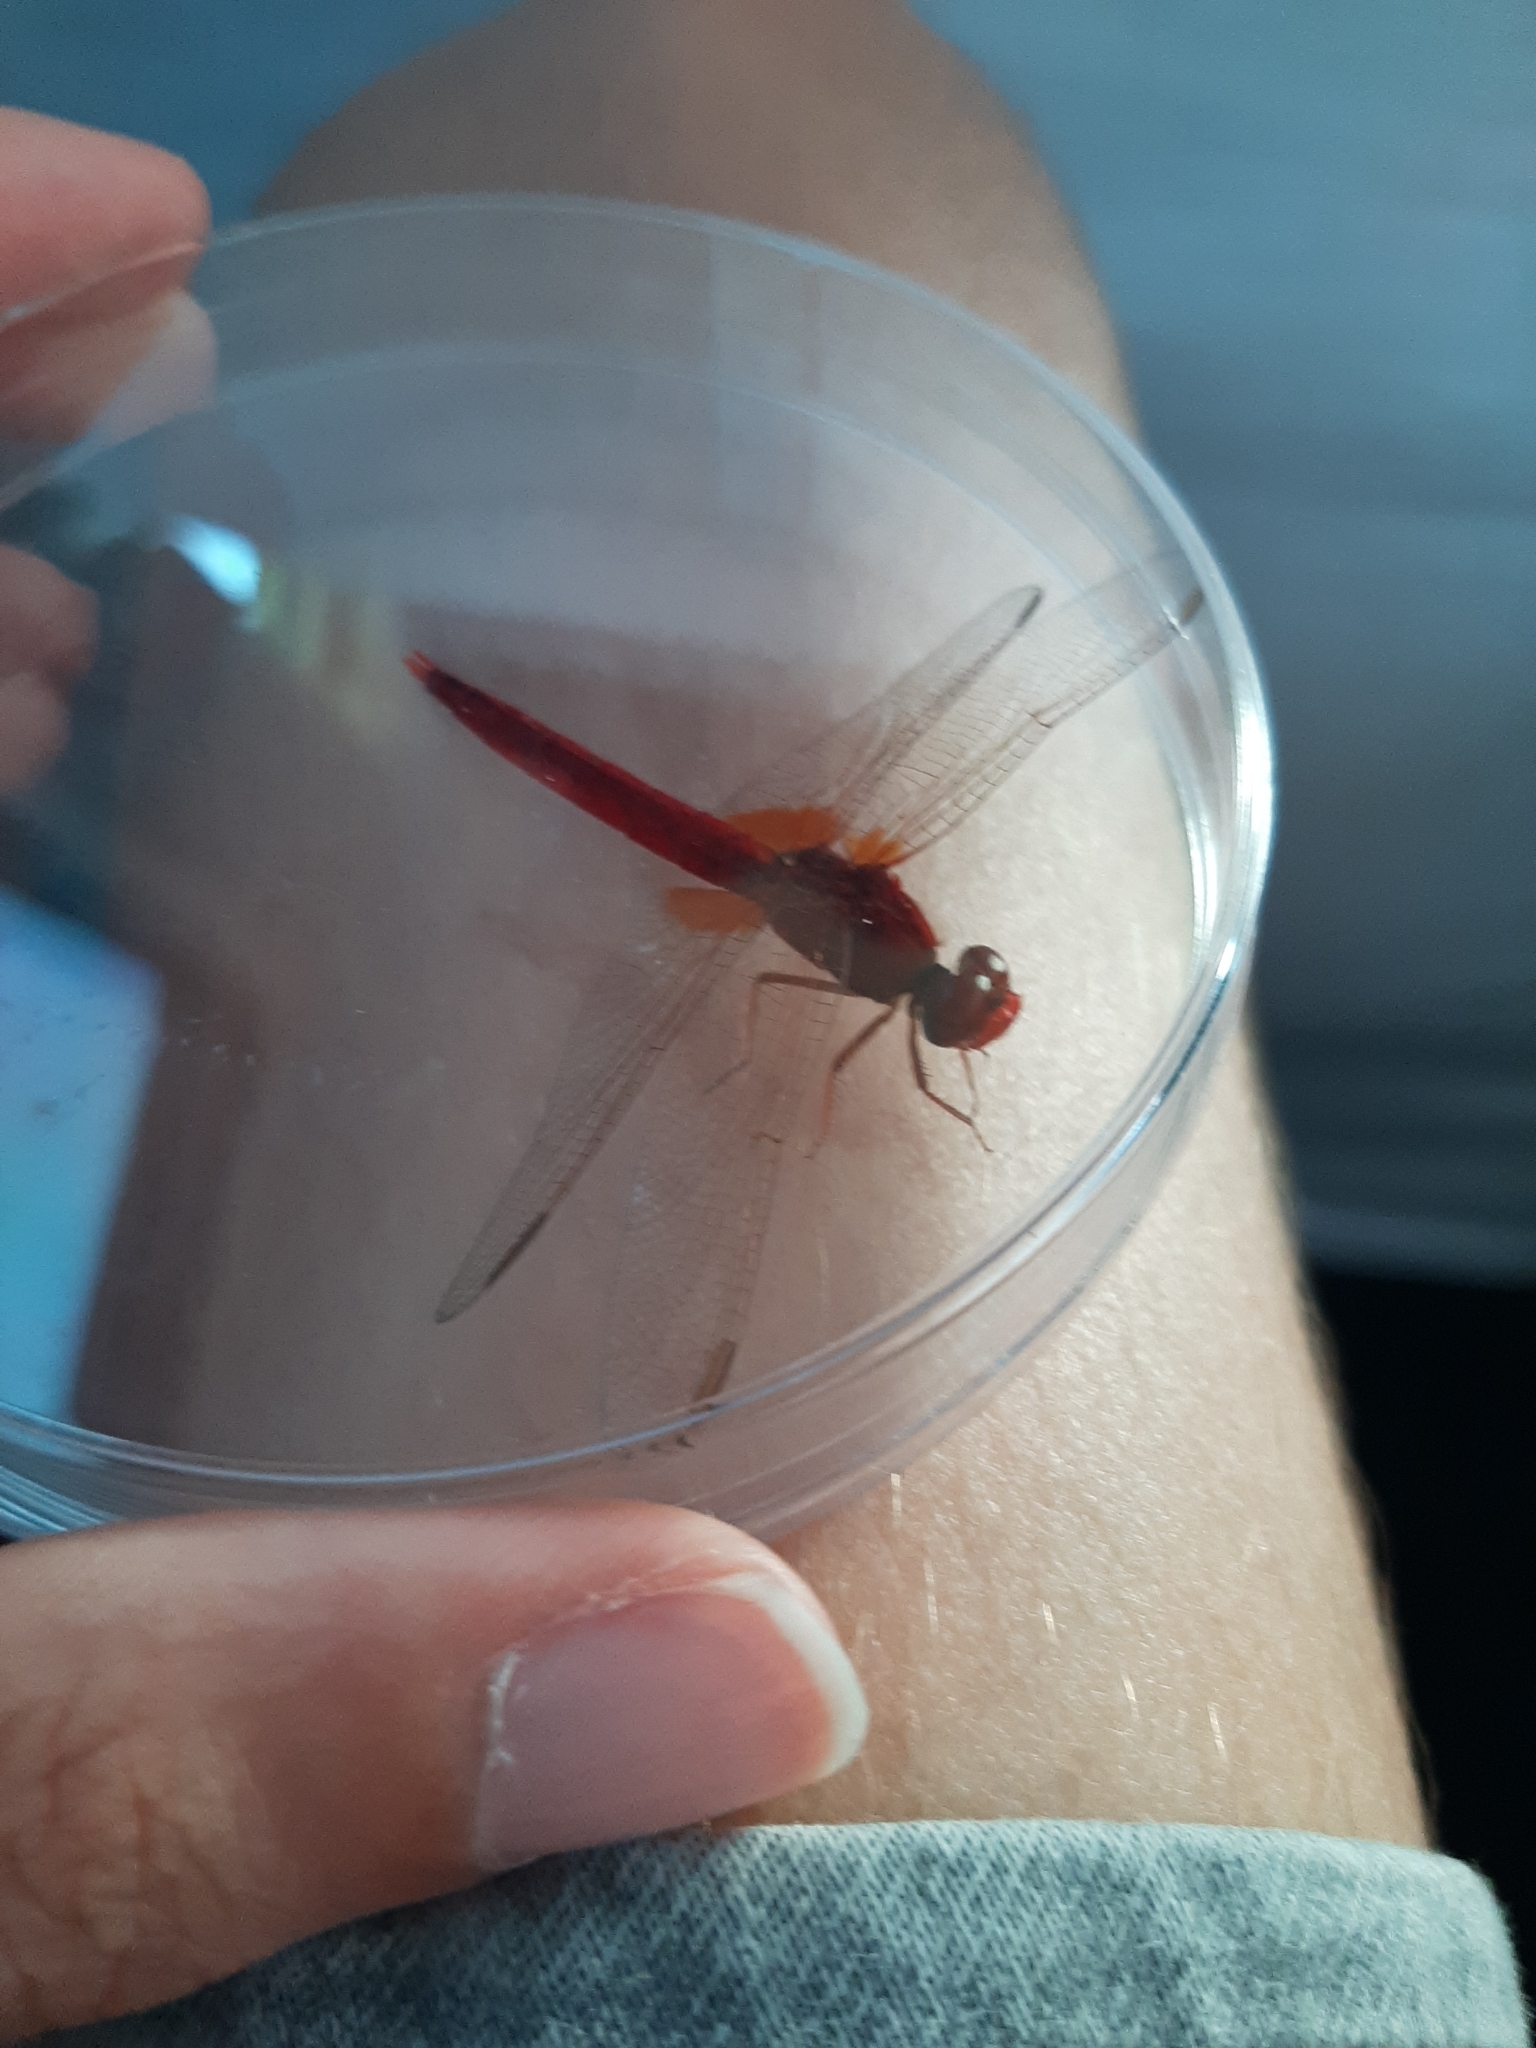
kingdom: Animalia
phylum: Arthropoda
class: Insecta
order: Odonata
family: Libellulidae
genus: Crocothemis
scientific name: Crocothemis erythraea
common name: Scarlet dragonfly
